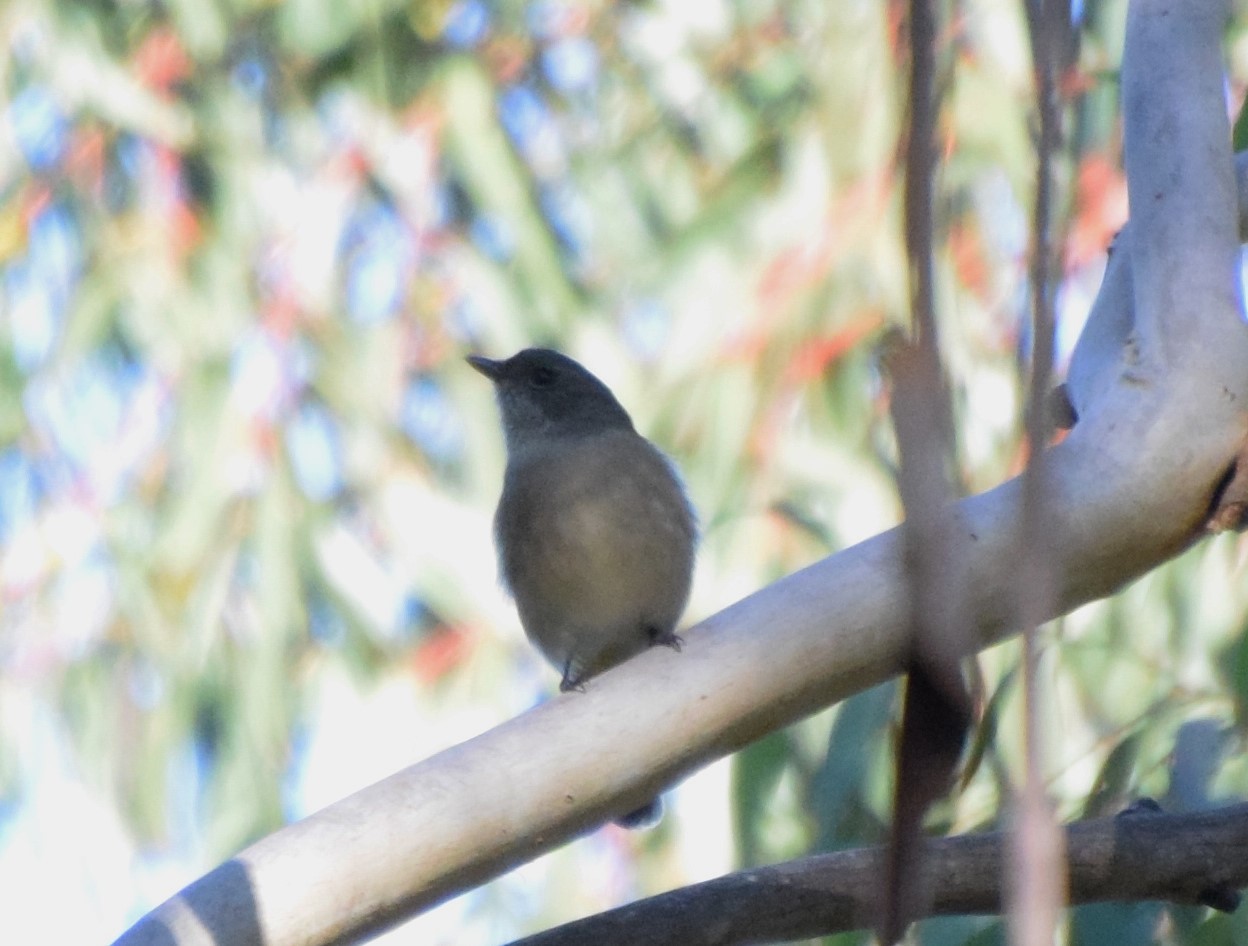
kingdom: Animalia
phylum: Chordata
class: Aves
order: Passeriformes
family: Pachycephalidae
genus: Pachycephala
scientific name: Pachycephala pectoralis
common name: Australian golden whistler
